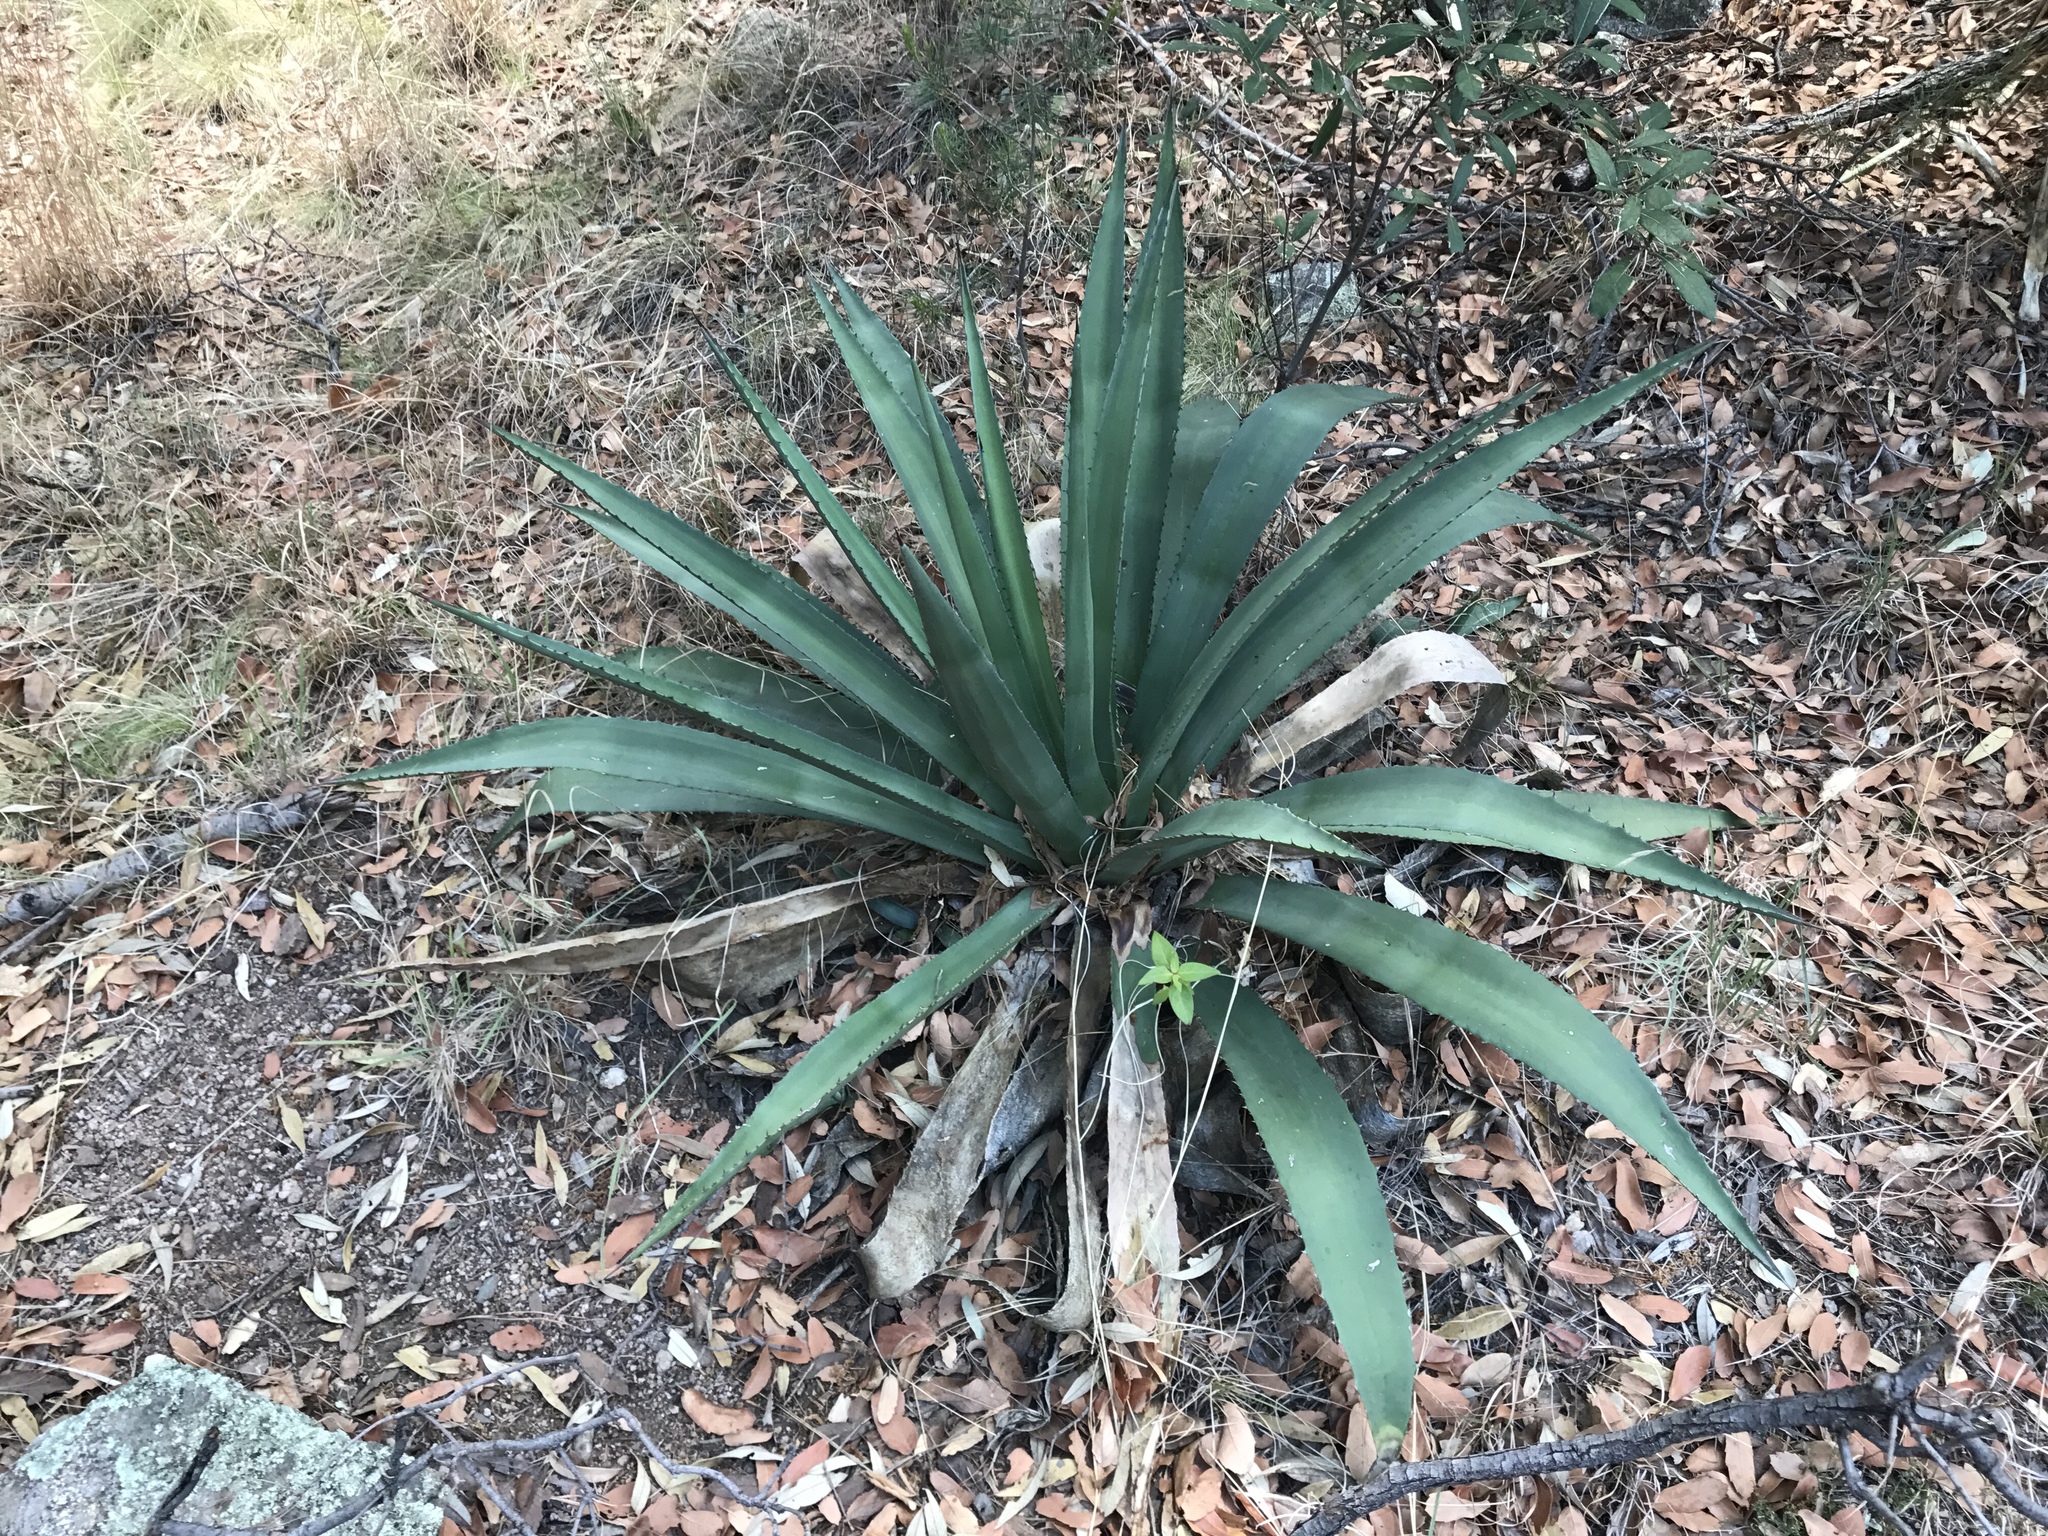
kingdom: Plantae
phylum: Tracheophyta
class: Liliopsida
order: Asparagales
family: Asparagaceae
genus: Agave
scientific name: Agave palmeri
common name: Palmer agave
